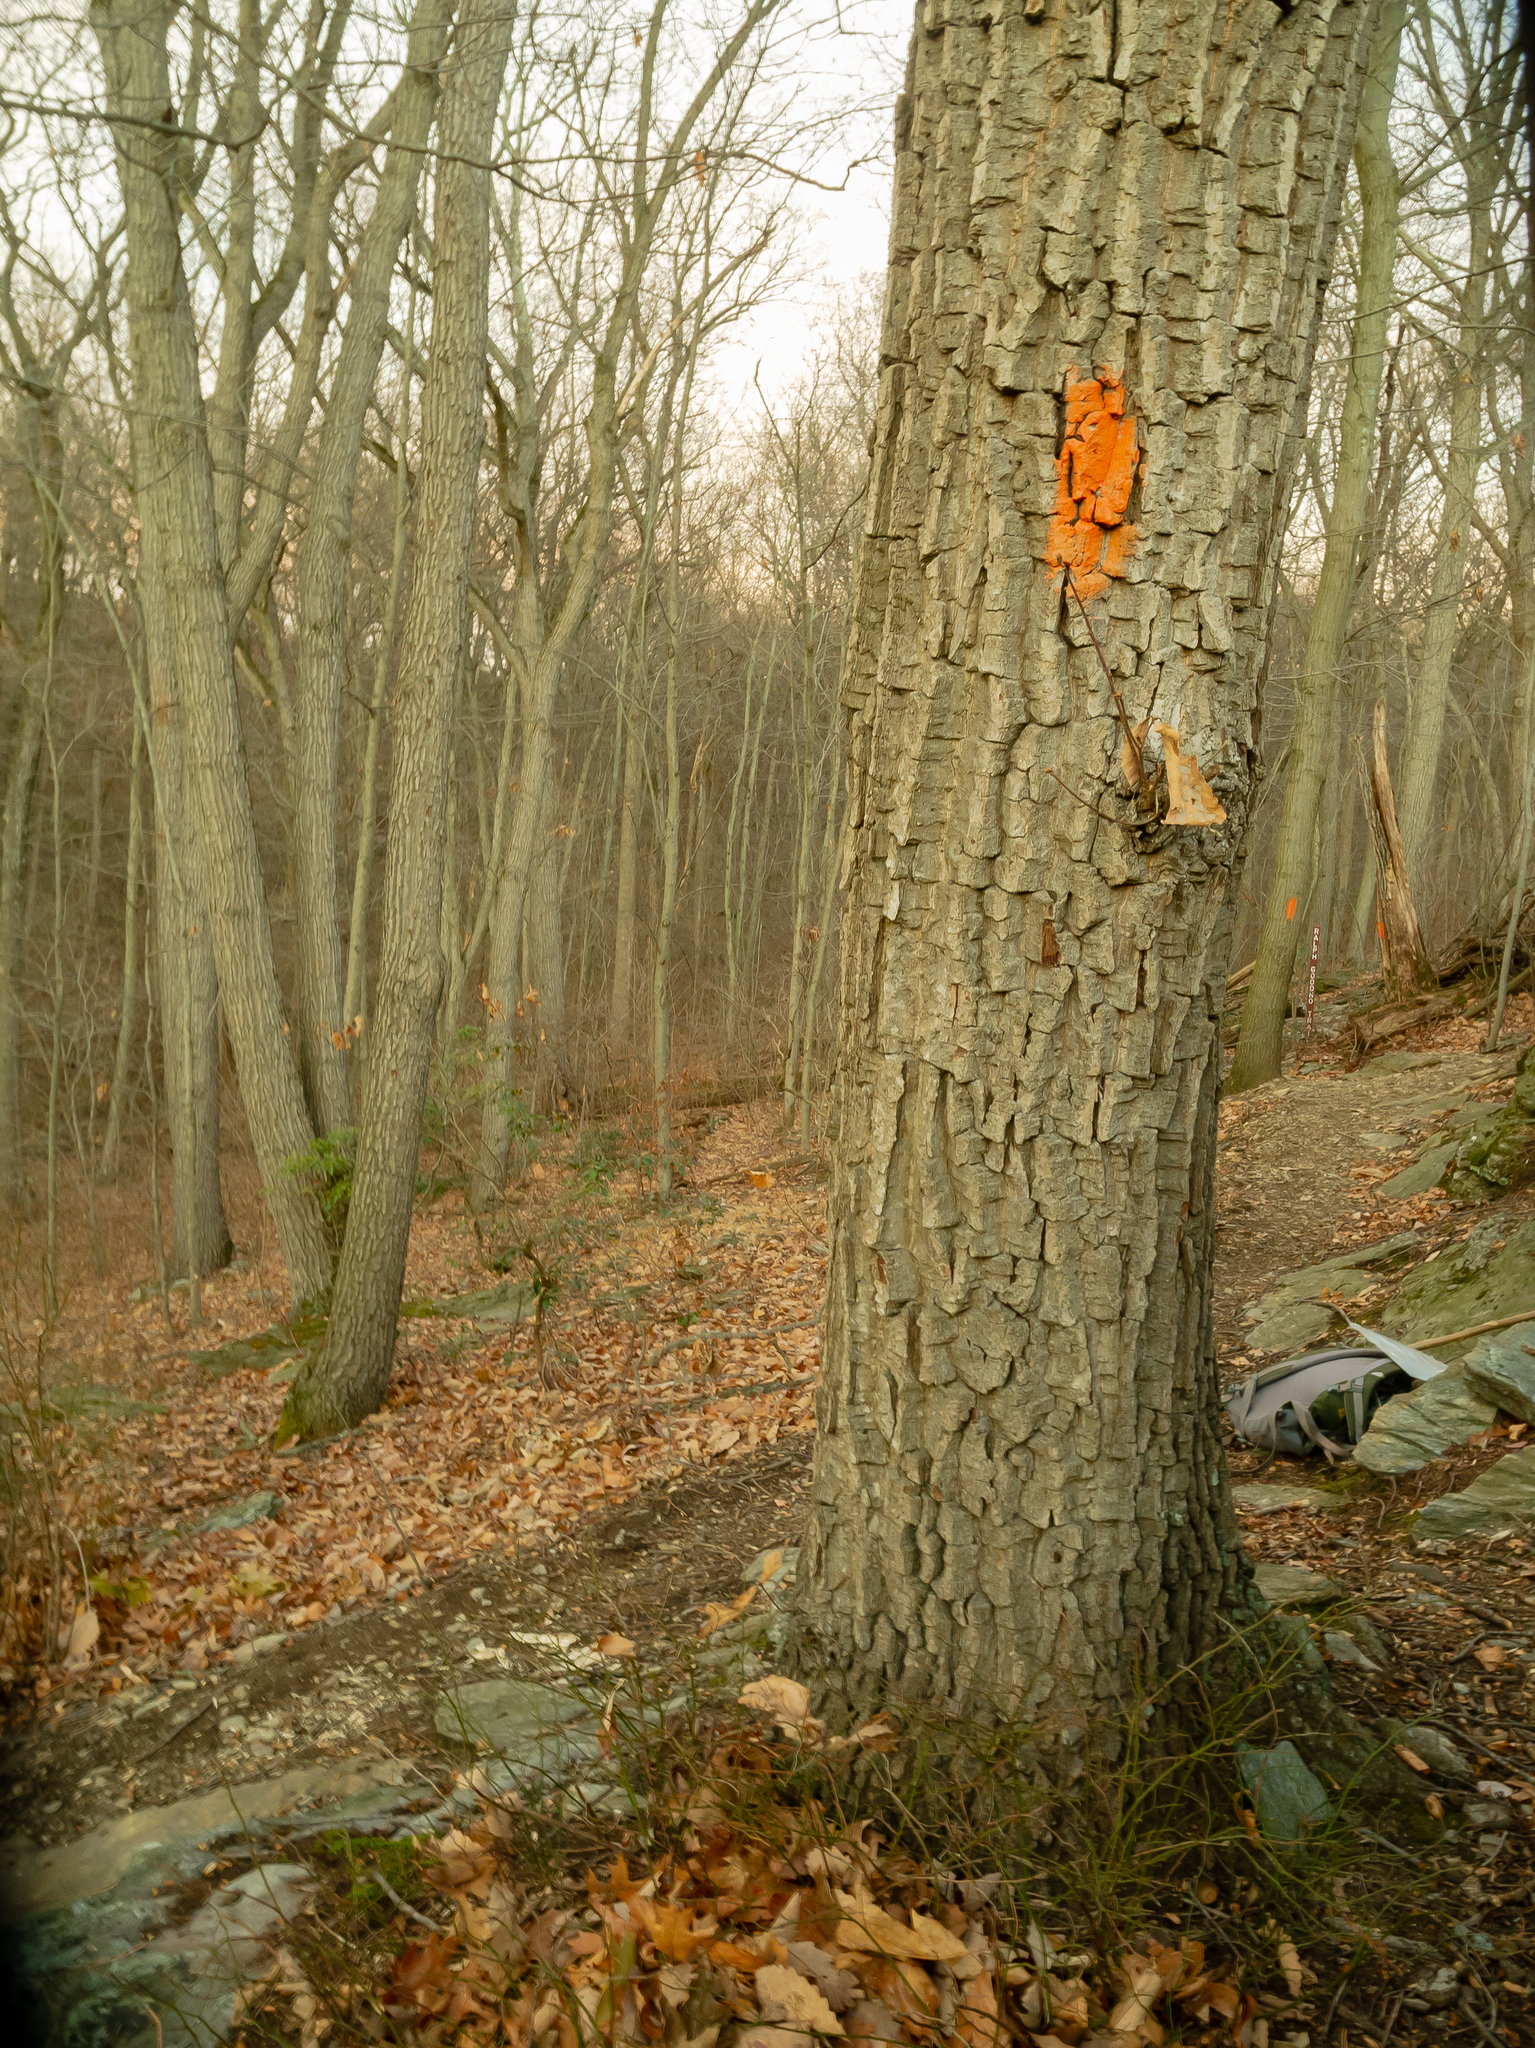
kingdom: Plantae
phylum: Tracheophyta
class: Magnoliopsida
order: Fagales
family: Fagaceae
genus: Quercus
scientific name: Quercus montana
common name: Chestnut oak
